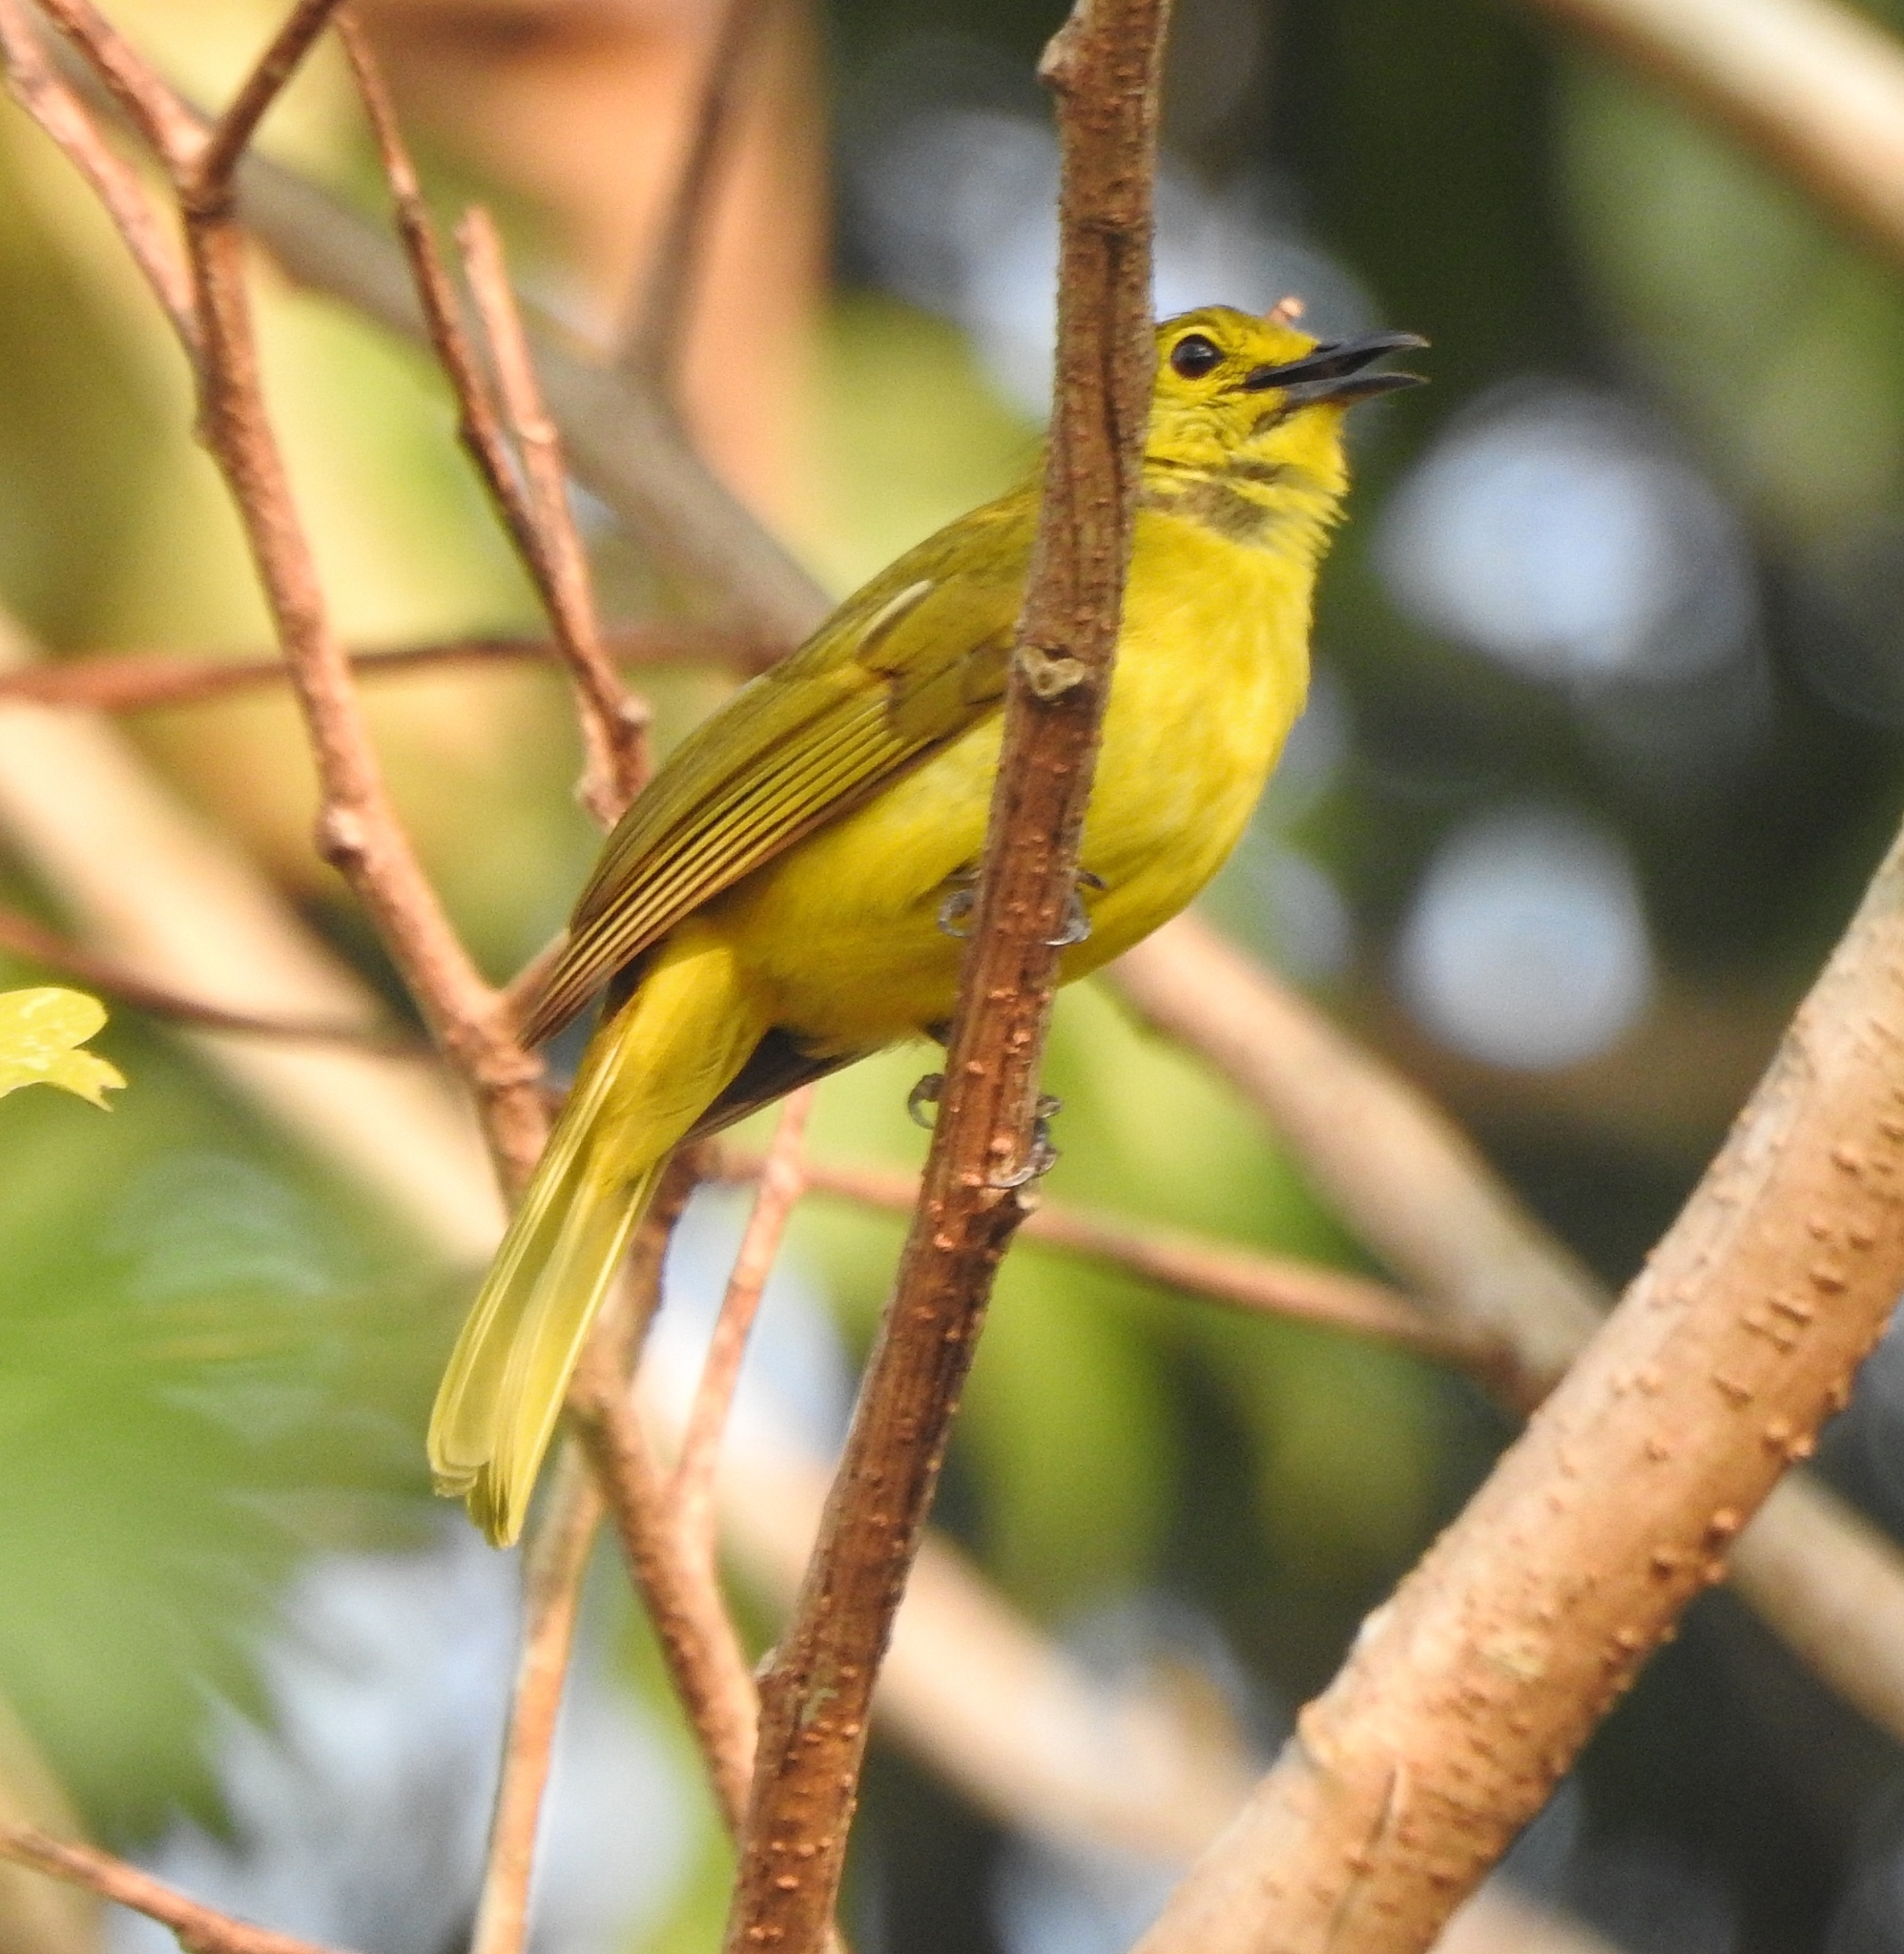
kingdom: Animalia
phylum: Chordata
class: Aves
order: Passeriformes
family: Pycnonotidae
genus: Acritillas
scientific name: Acritillas indica
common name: Yellow-browed bulbul
